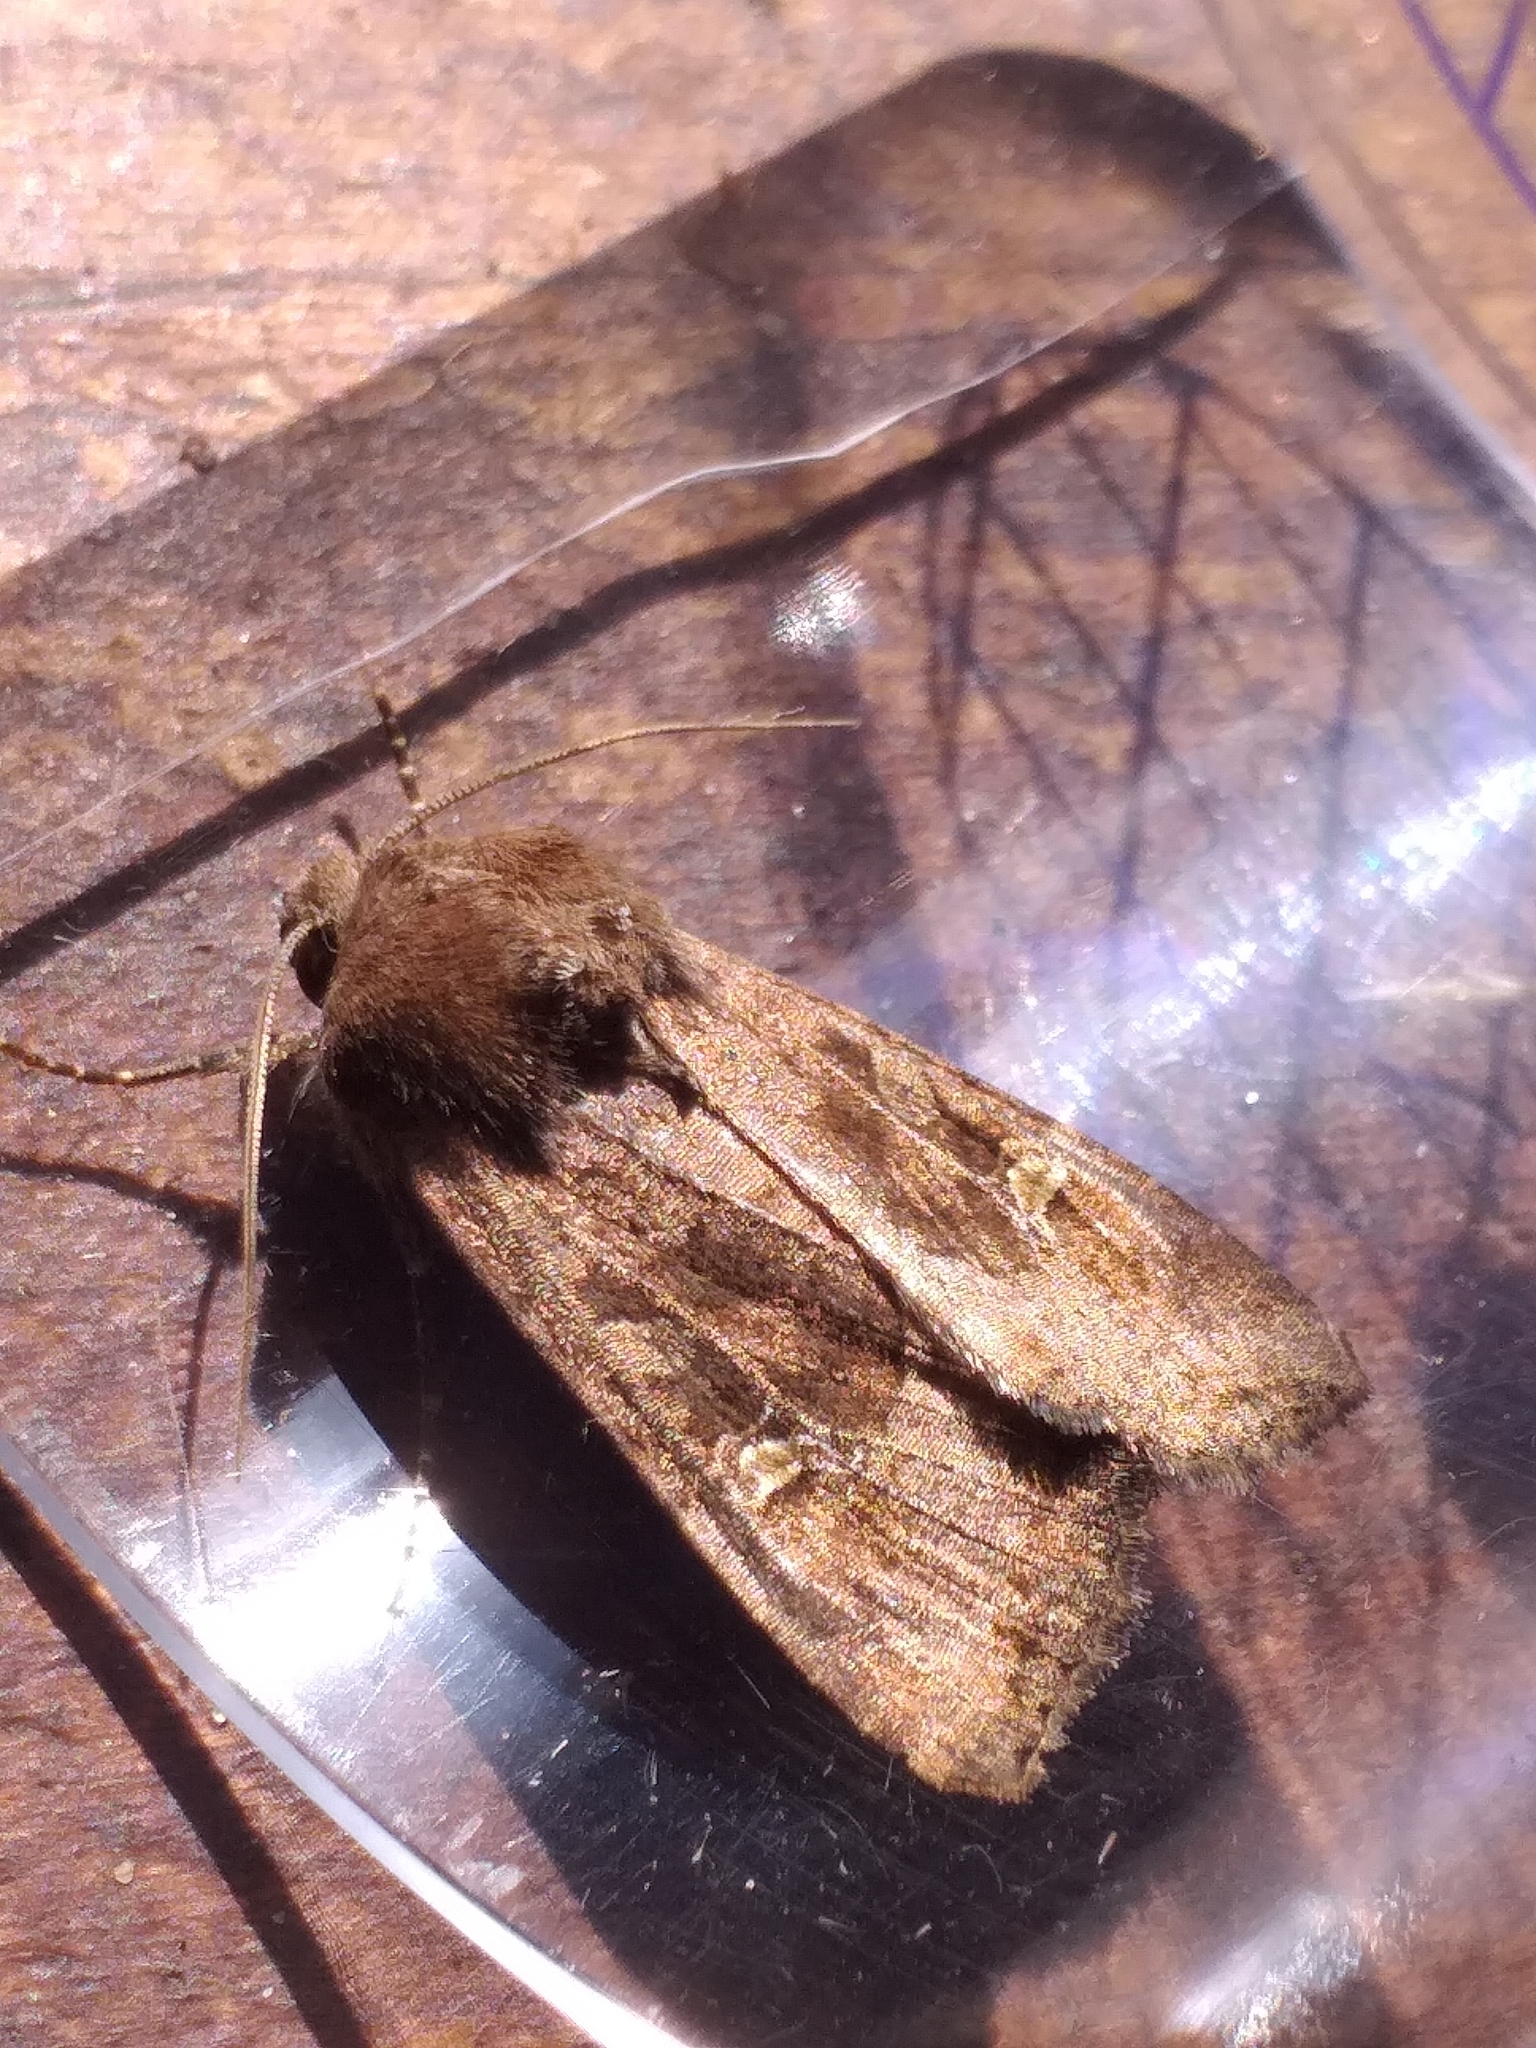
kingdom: Animalia
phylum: Arthropoda
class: Insecta
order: Lepidoptera
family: Noctuidae
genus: Helotropha
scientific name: Helotropha leucostigma
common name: The crescent
